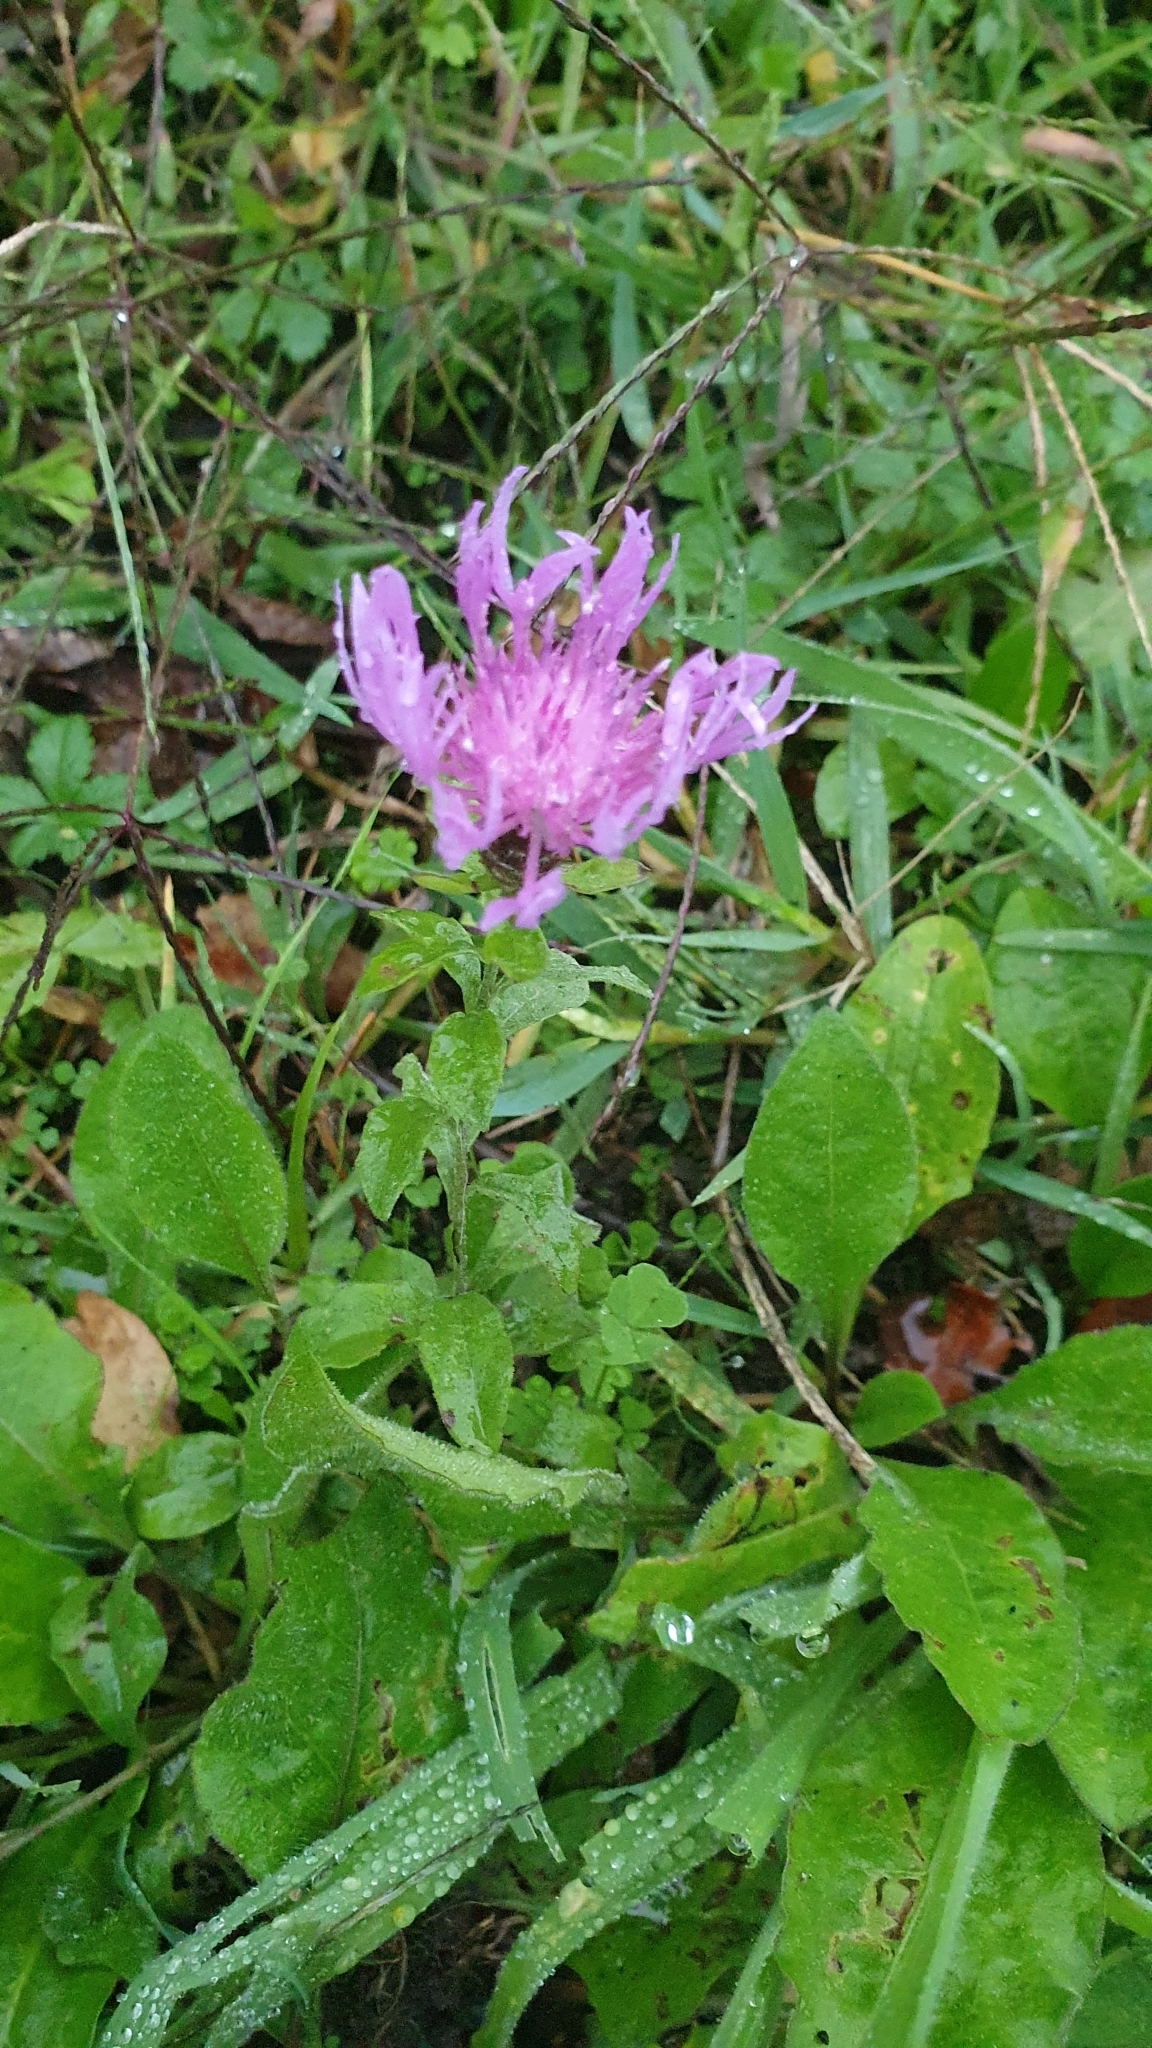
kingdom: Plantae
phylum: Tracheophyta
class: Magnoliopsida
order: Asterales
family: Asteraceae
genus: Centaurea
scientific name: Centaurea nigrescens
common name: Tyrol knapweed
